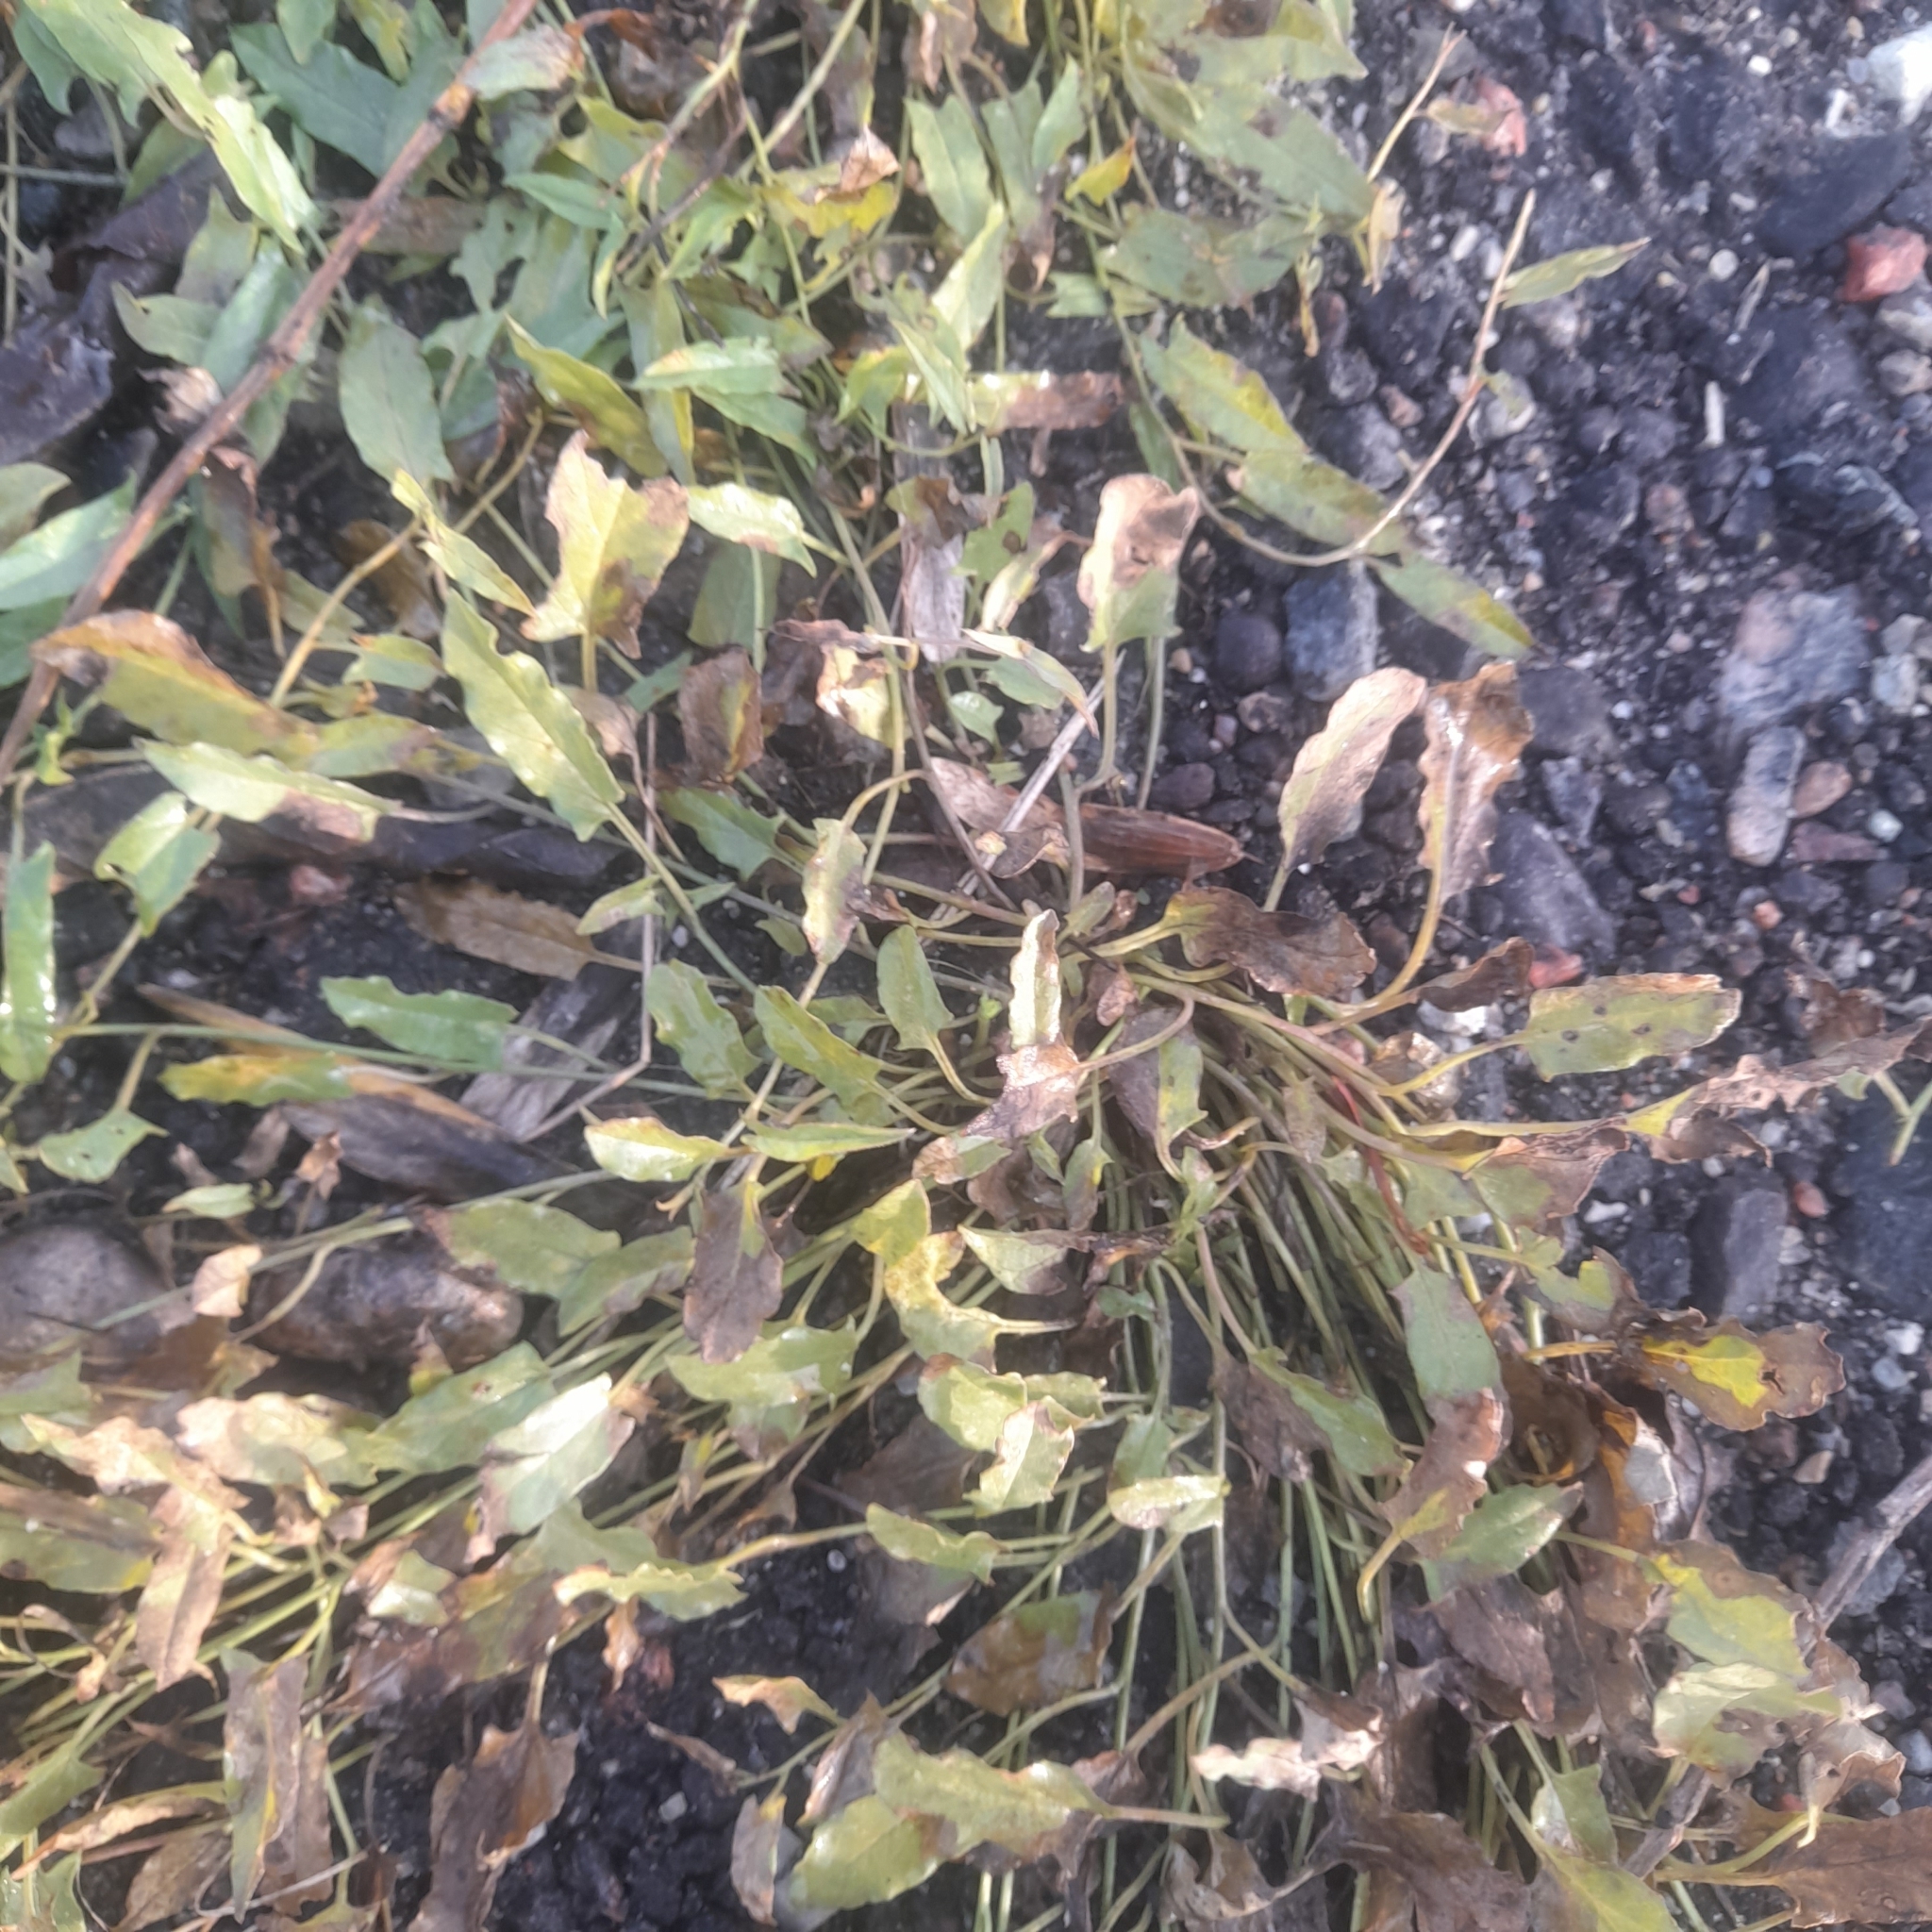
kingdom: Plantae
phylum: Tracheophyta
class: Magnoliopsida
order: Solanales
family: Convolvulaceae
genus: Convolvulus
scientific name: Convolvulus arvensis
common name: Field bindweed
